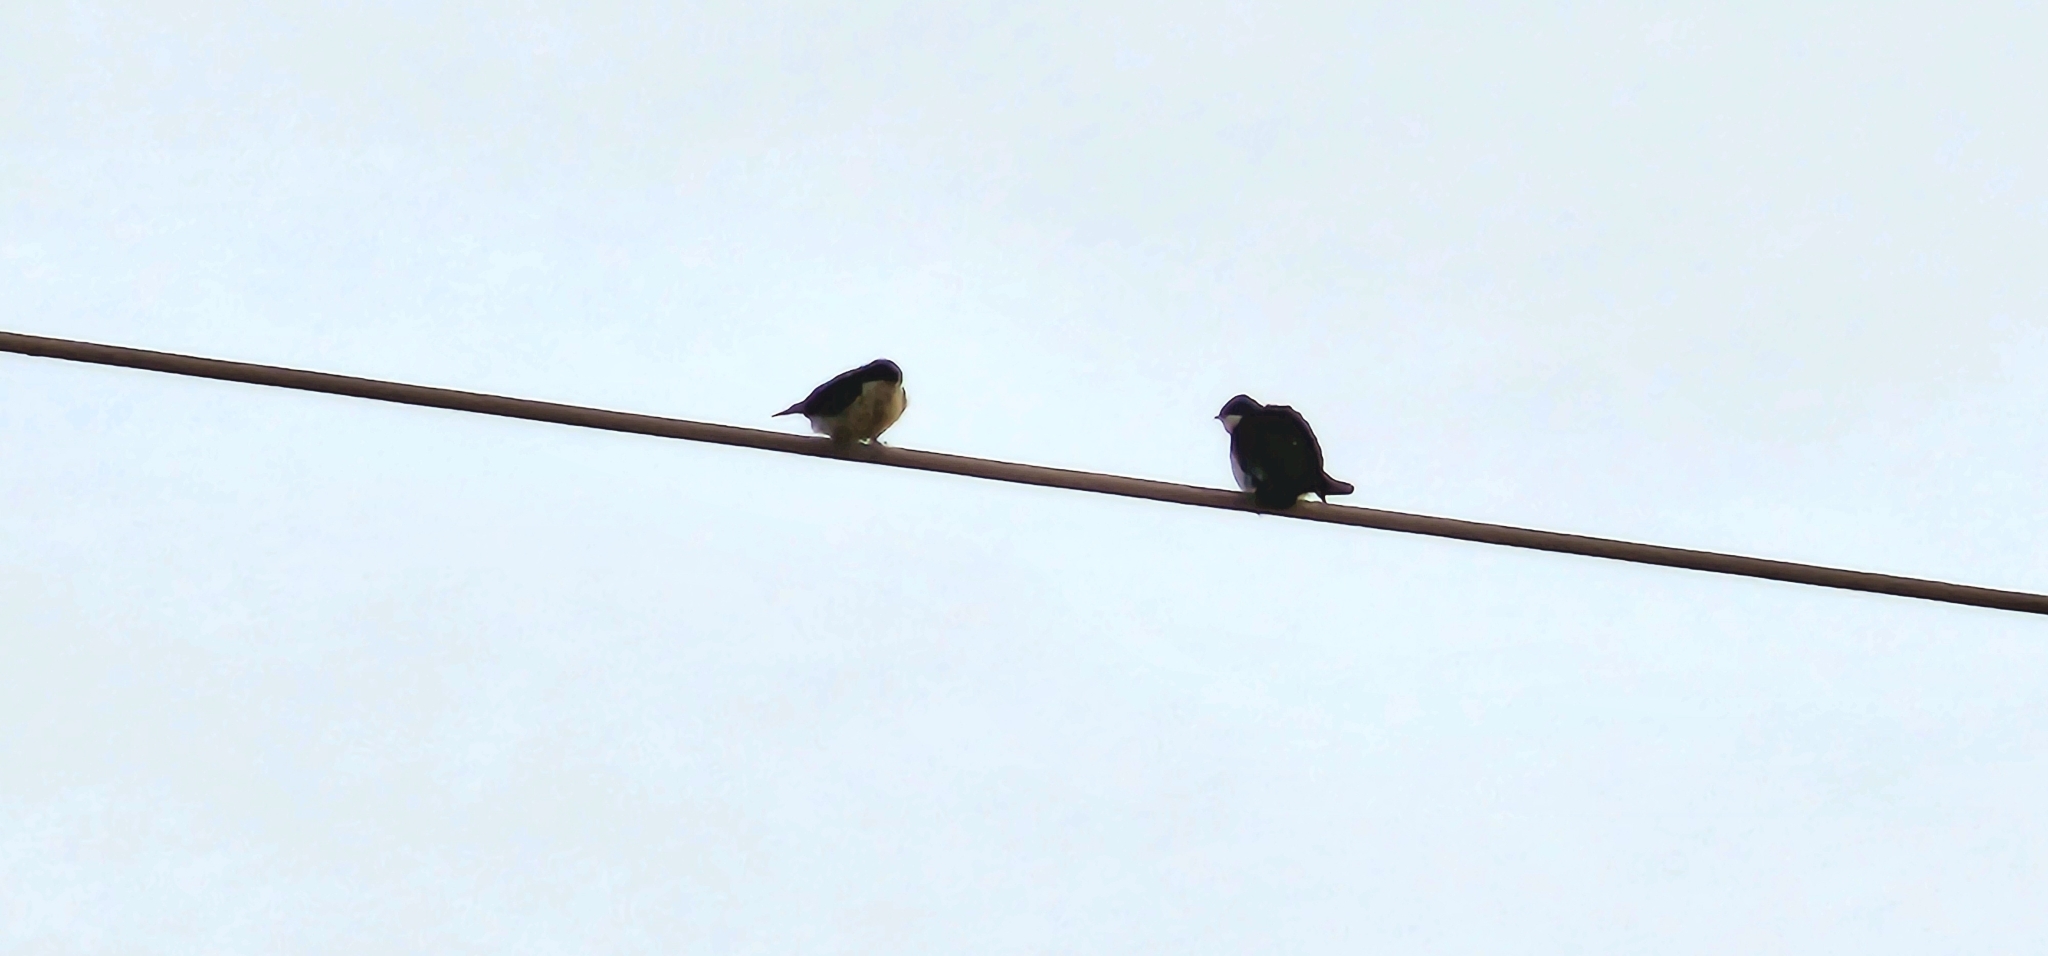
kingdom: Animalia
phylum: Chordata
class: Aves
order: Passeriformes
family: Hirundinidae
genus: Notiochelidon
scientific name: Notiochelidon cyanoleuca
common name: Blue-and-white swallow
